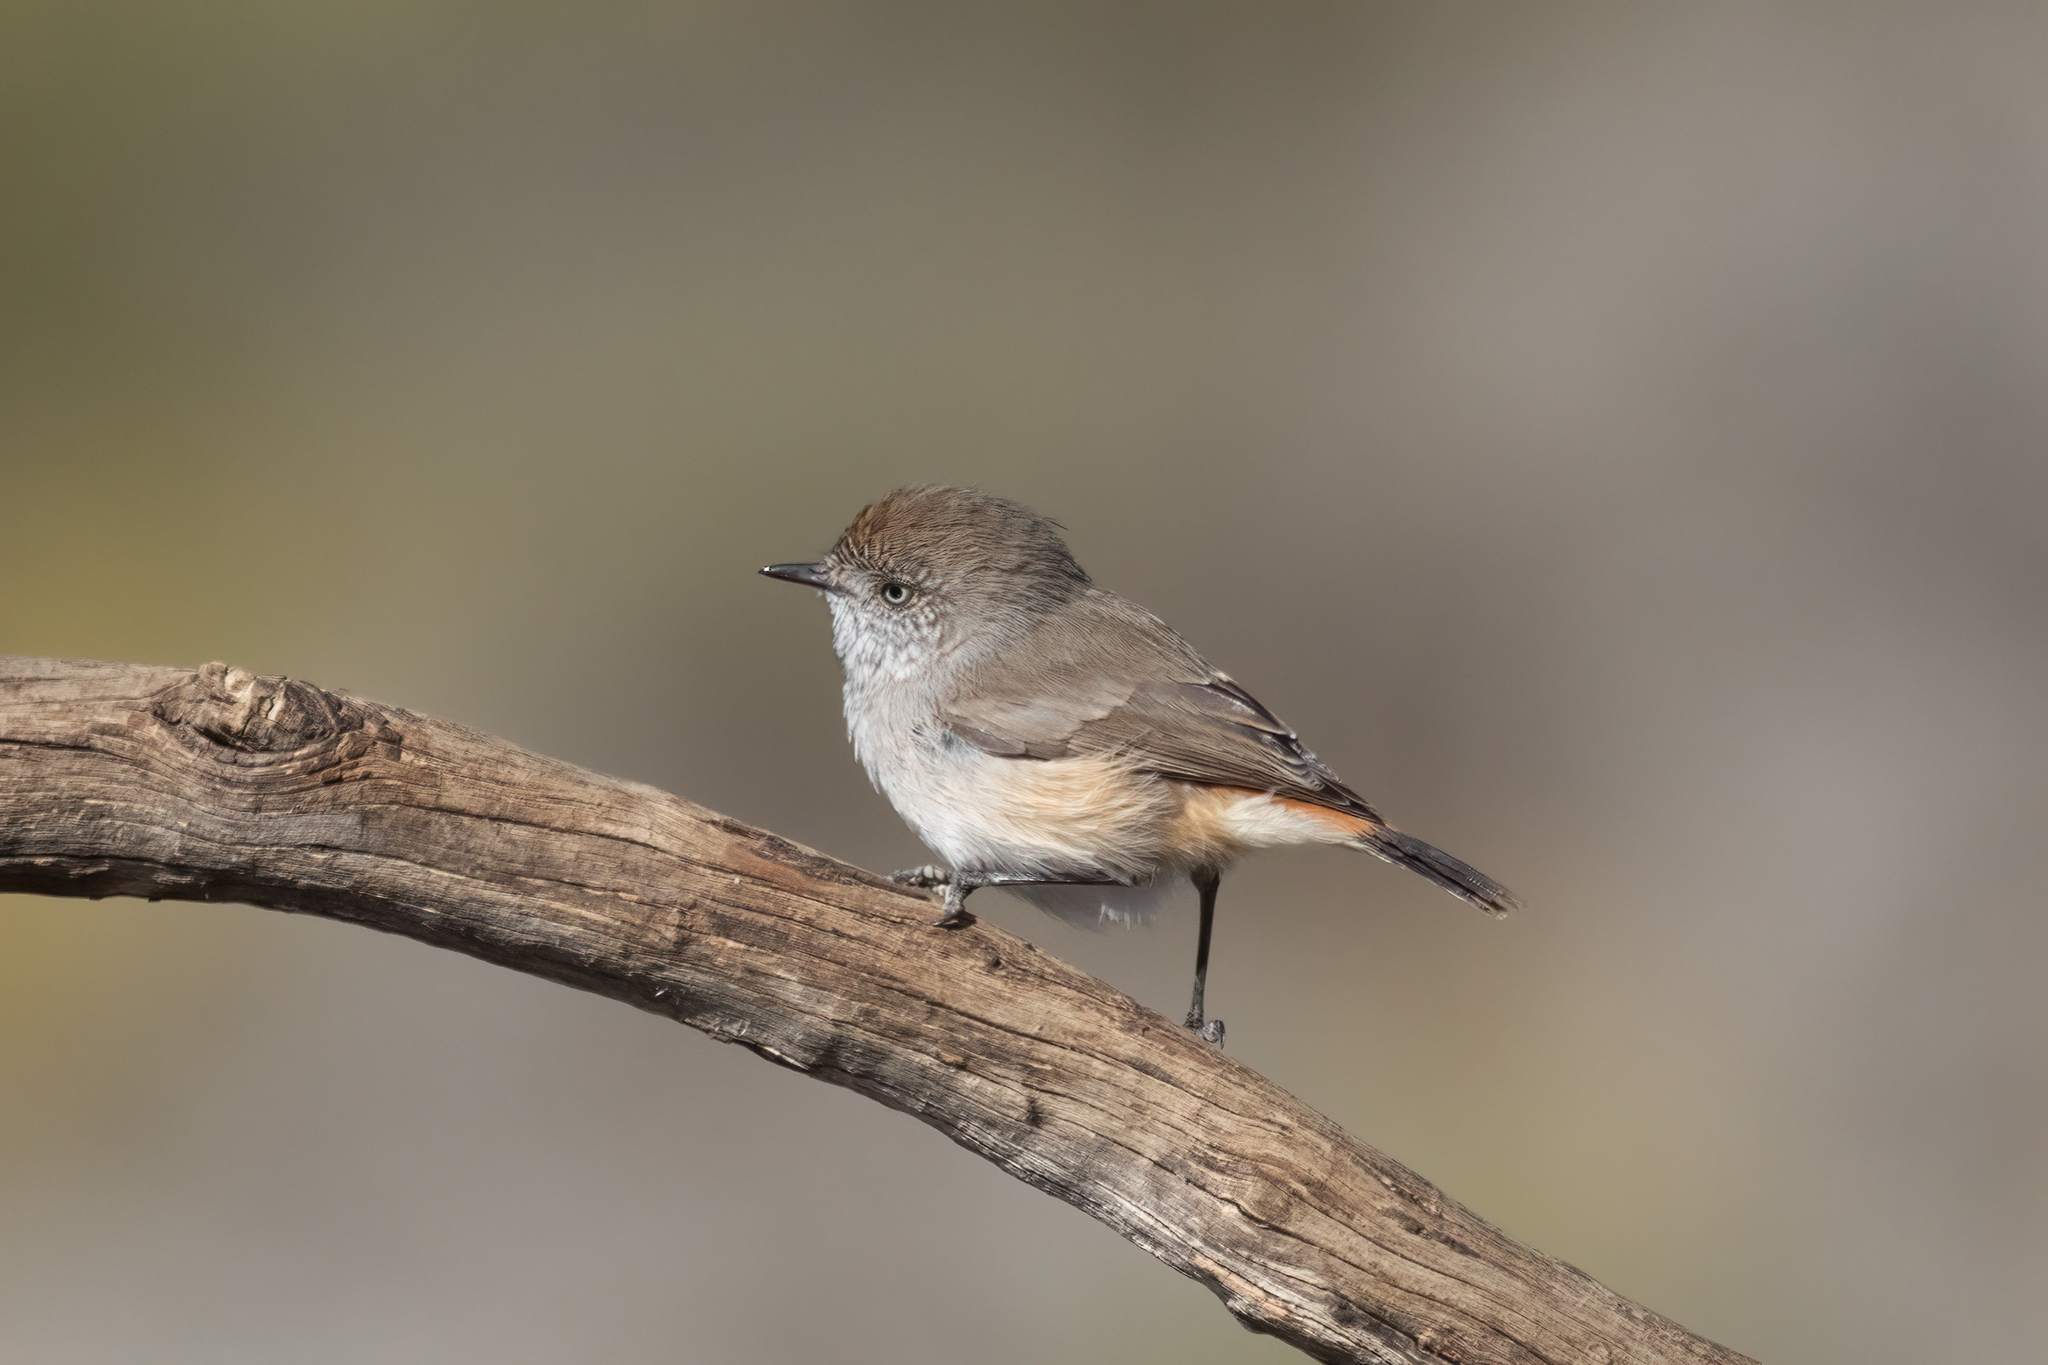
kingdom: Animalia
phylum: Chordata
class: Aves
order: Passeriformes
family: Acanthizidae
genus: Acanthiza
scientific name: Acanthiza uropygialis
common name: Chestnut-rumped thornbill
